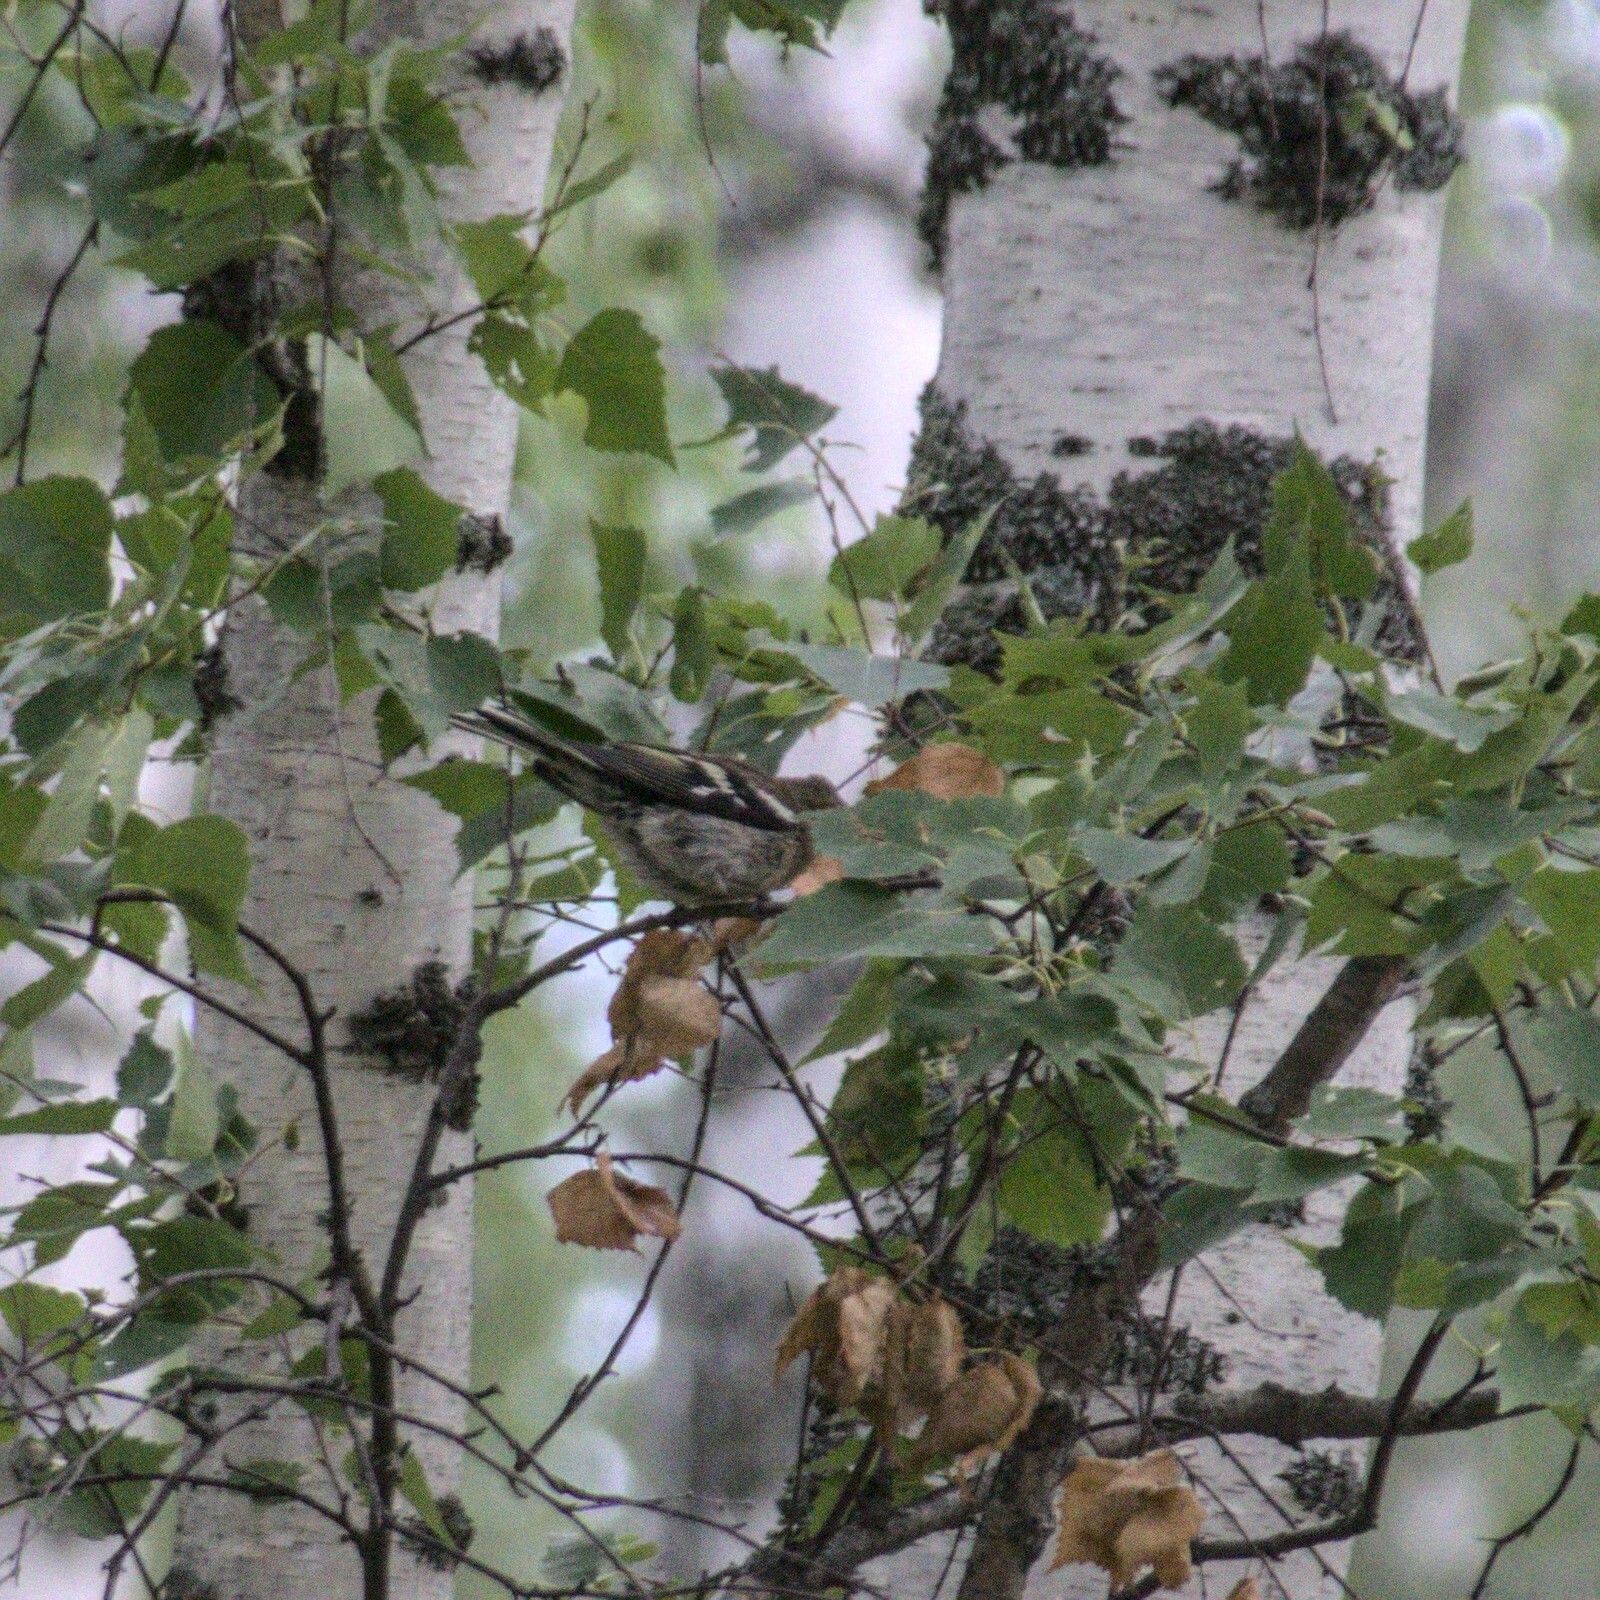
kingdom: Animalia
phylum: Chordata
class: Aves
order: Passeriformes
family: Fringillidae
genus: Fringilla
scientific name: Fringilla coelebs
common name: Common chaffinch
